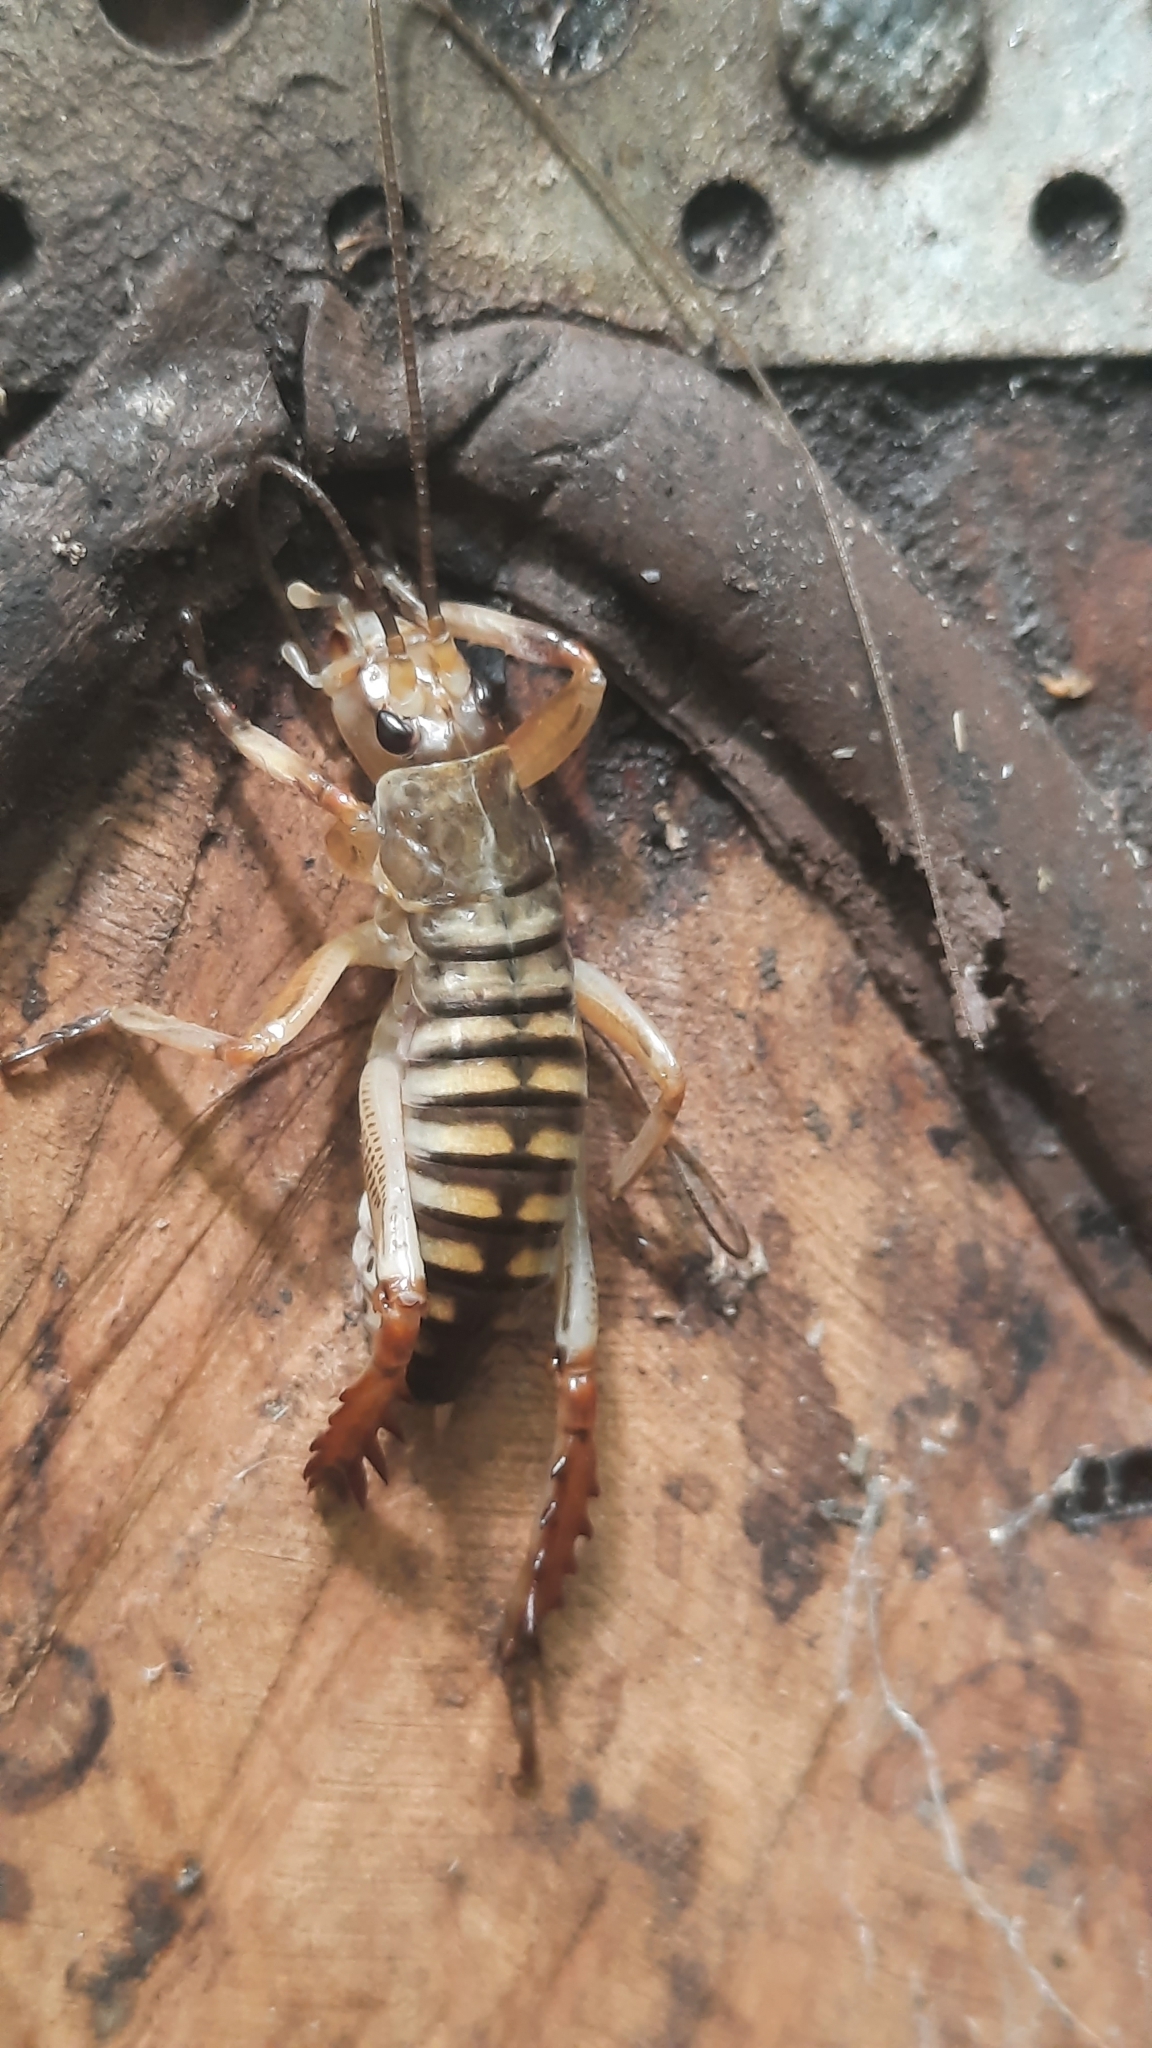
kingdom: Animalia
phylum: Arthropoda
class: Insecta
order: Orthoptera
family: Anostostomatidae
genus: Hemideina
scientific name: Hemideina crassidens
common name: Wellington tree weta
